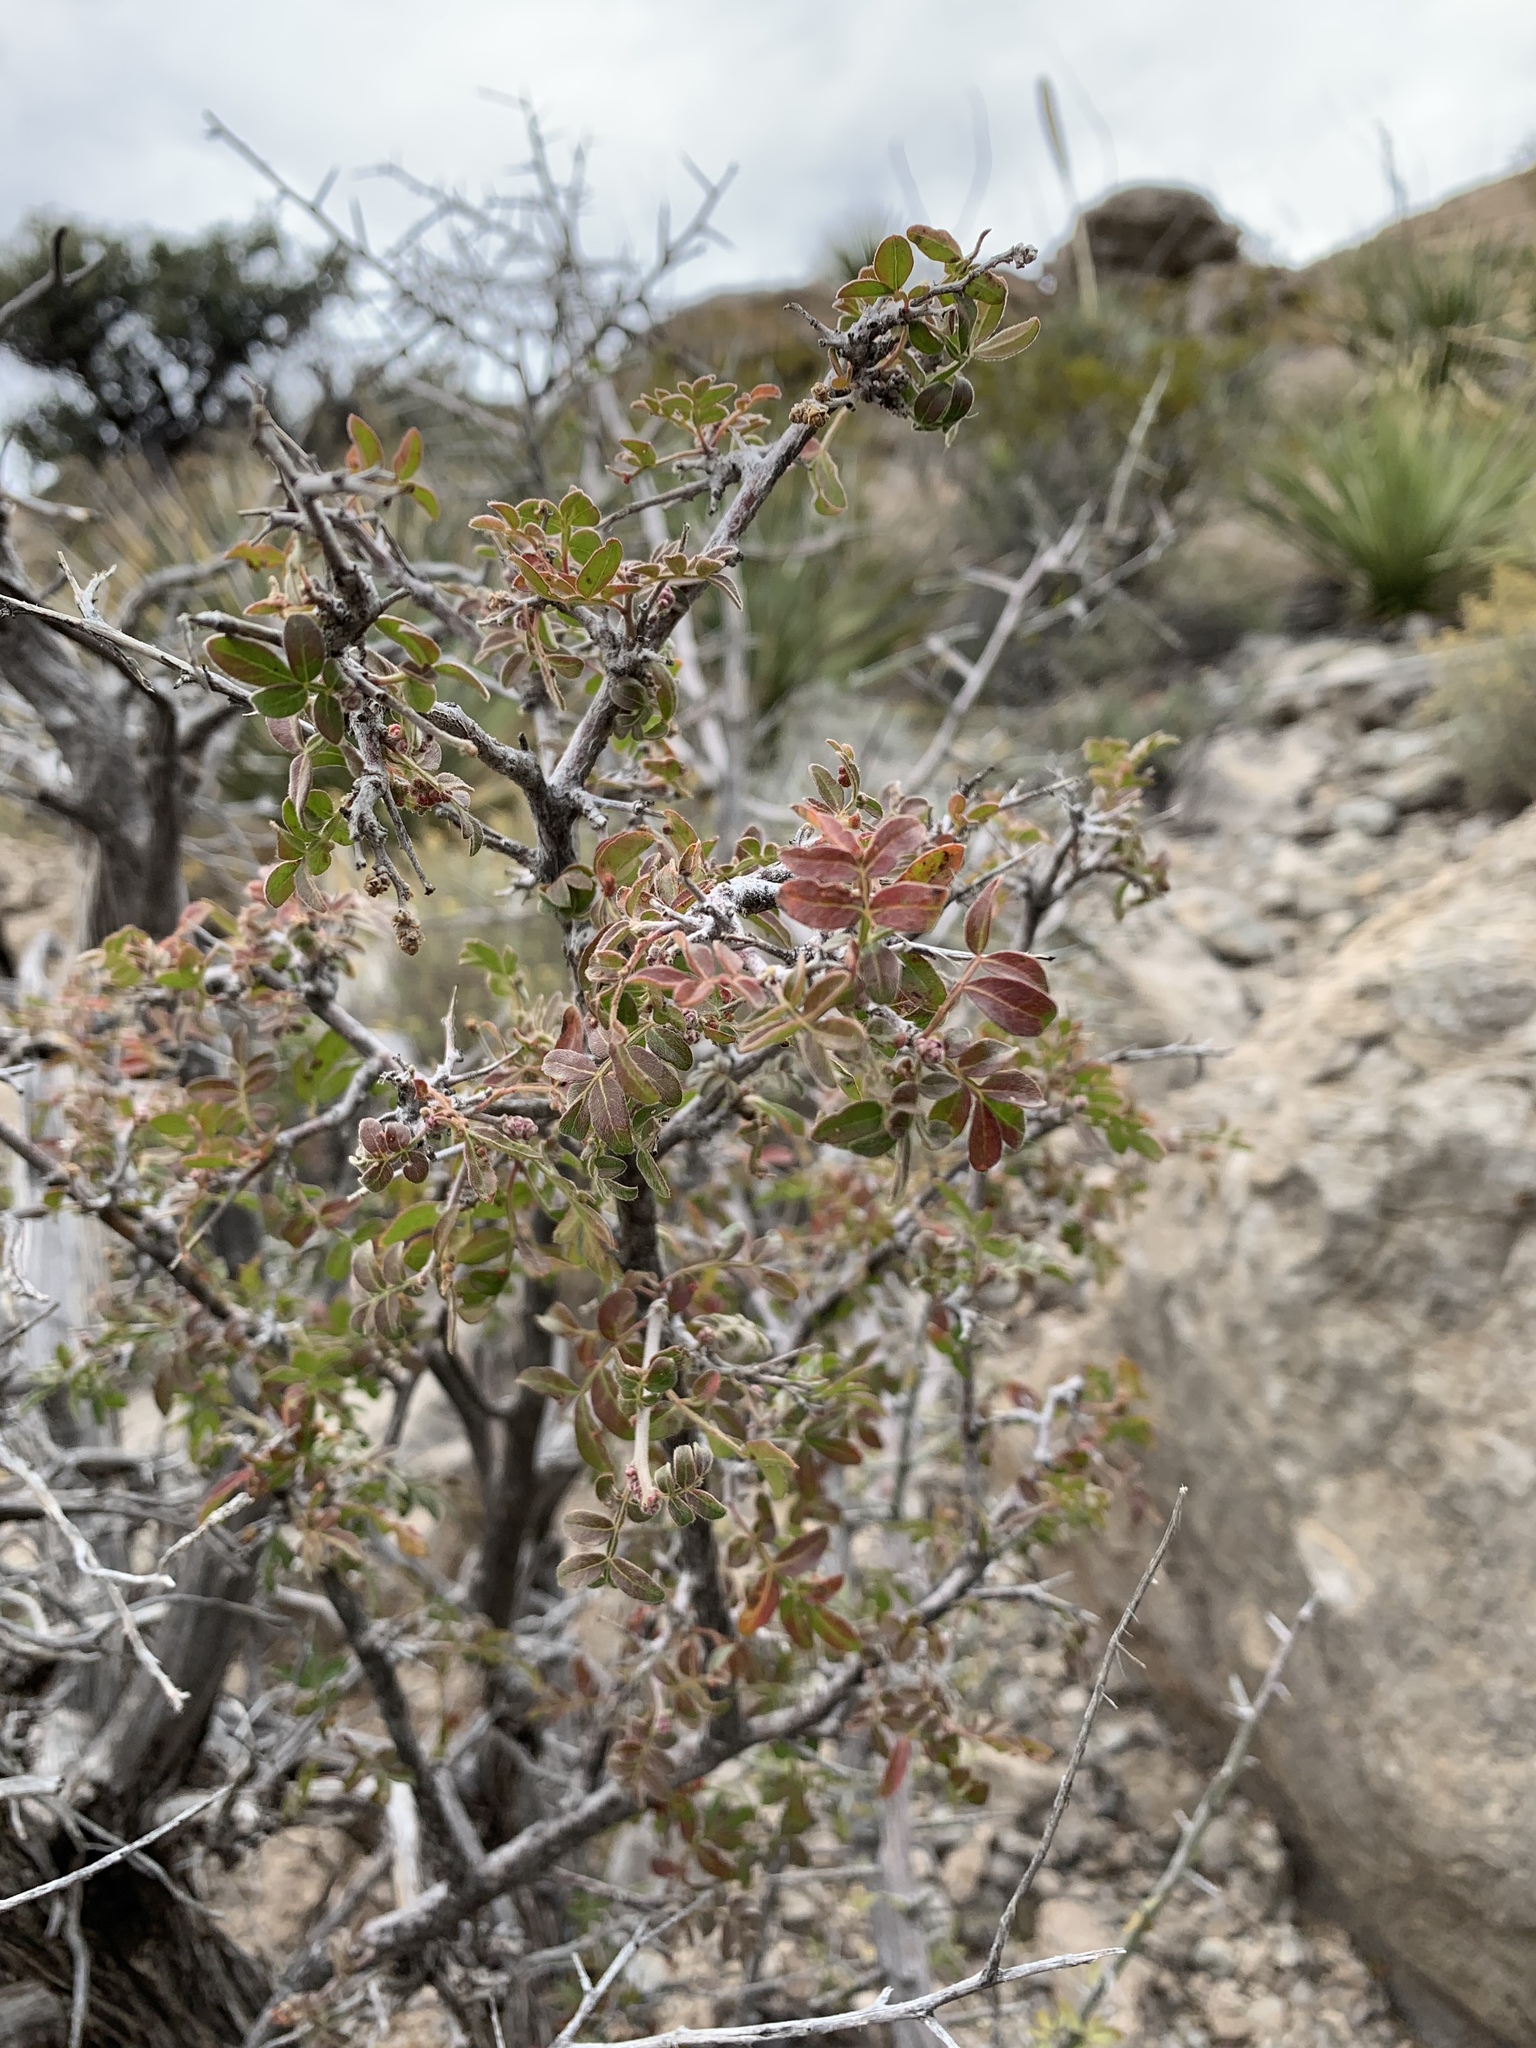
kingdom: Plantae
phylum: Tracheophyta
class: Magnoliopsida
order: Sapindales
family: Anacardiaceae
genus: Rhus
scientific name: Rhus microphylla
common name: Desert sumac
